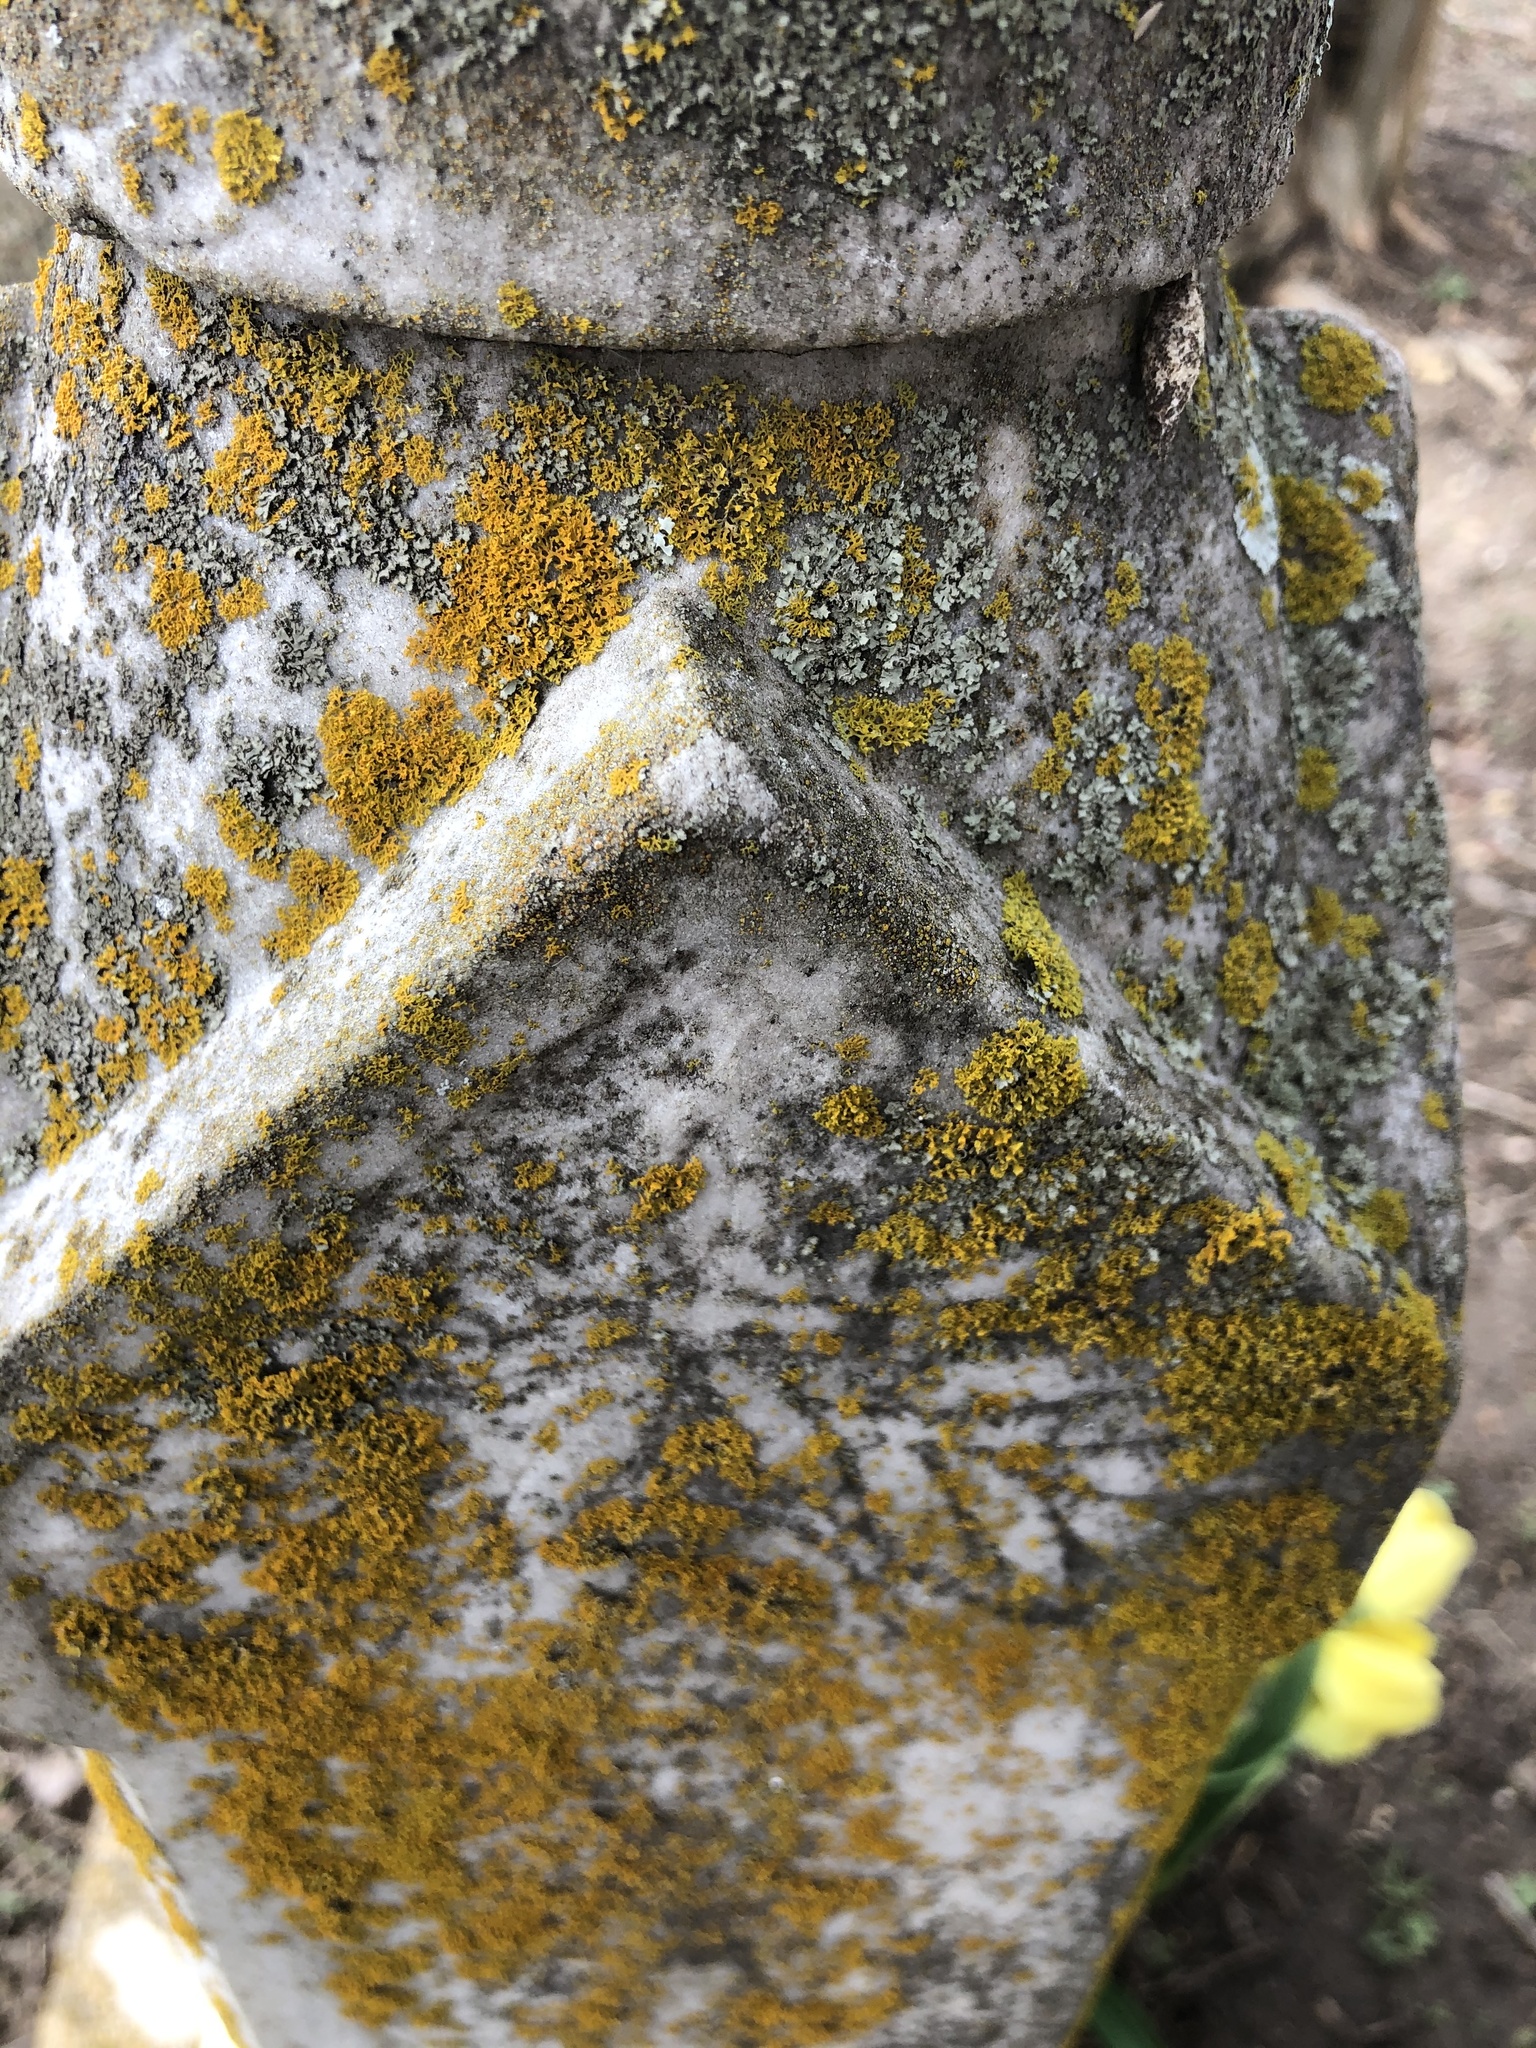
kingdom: Fungi
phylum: Ascomycota
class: Lecanoromycetes
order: Teloschistales
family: Teloschistaceae
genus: Gallowayella
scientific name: Gallowayella weberi
